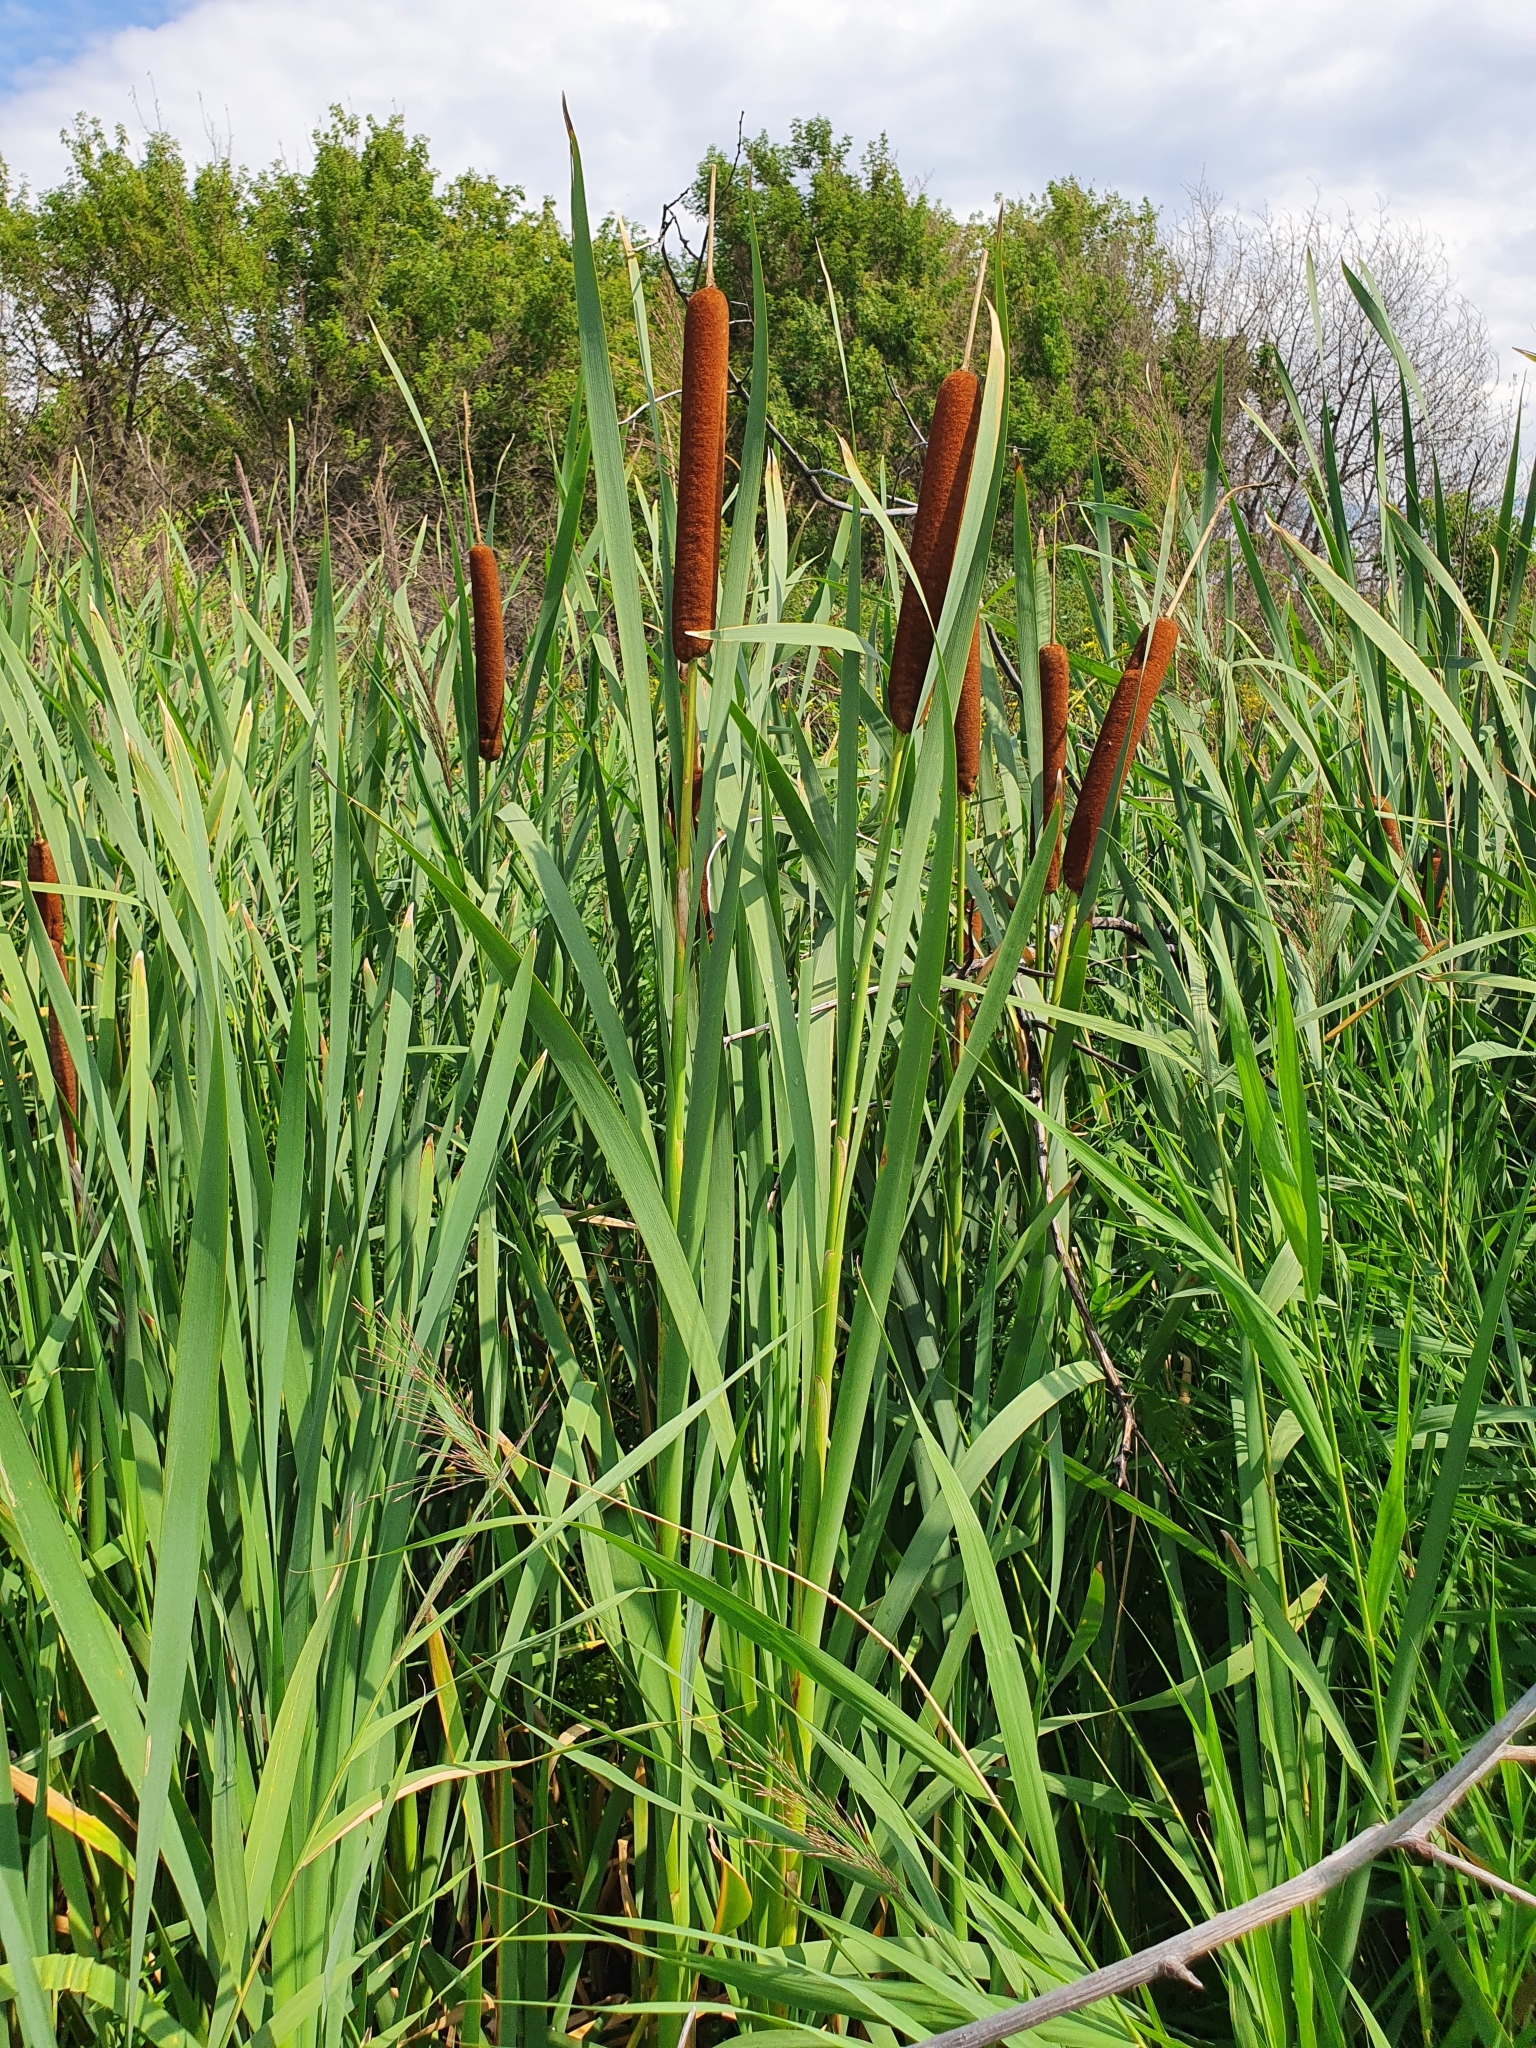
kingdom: Plantae
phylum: Tracheophyta
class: Liliopsida
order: Poales
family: Typhaceae
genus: Typha
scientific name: Typha latifolia
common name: Broadleaf cattail
